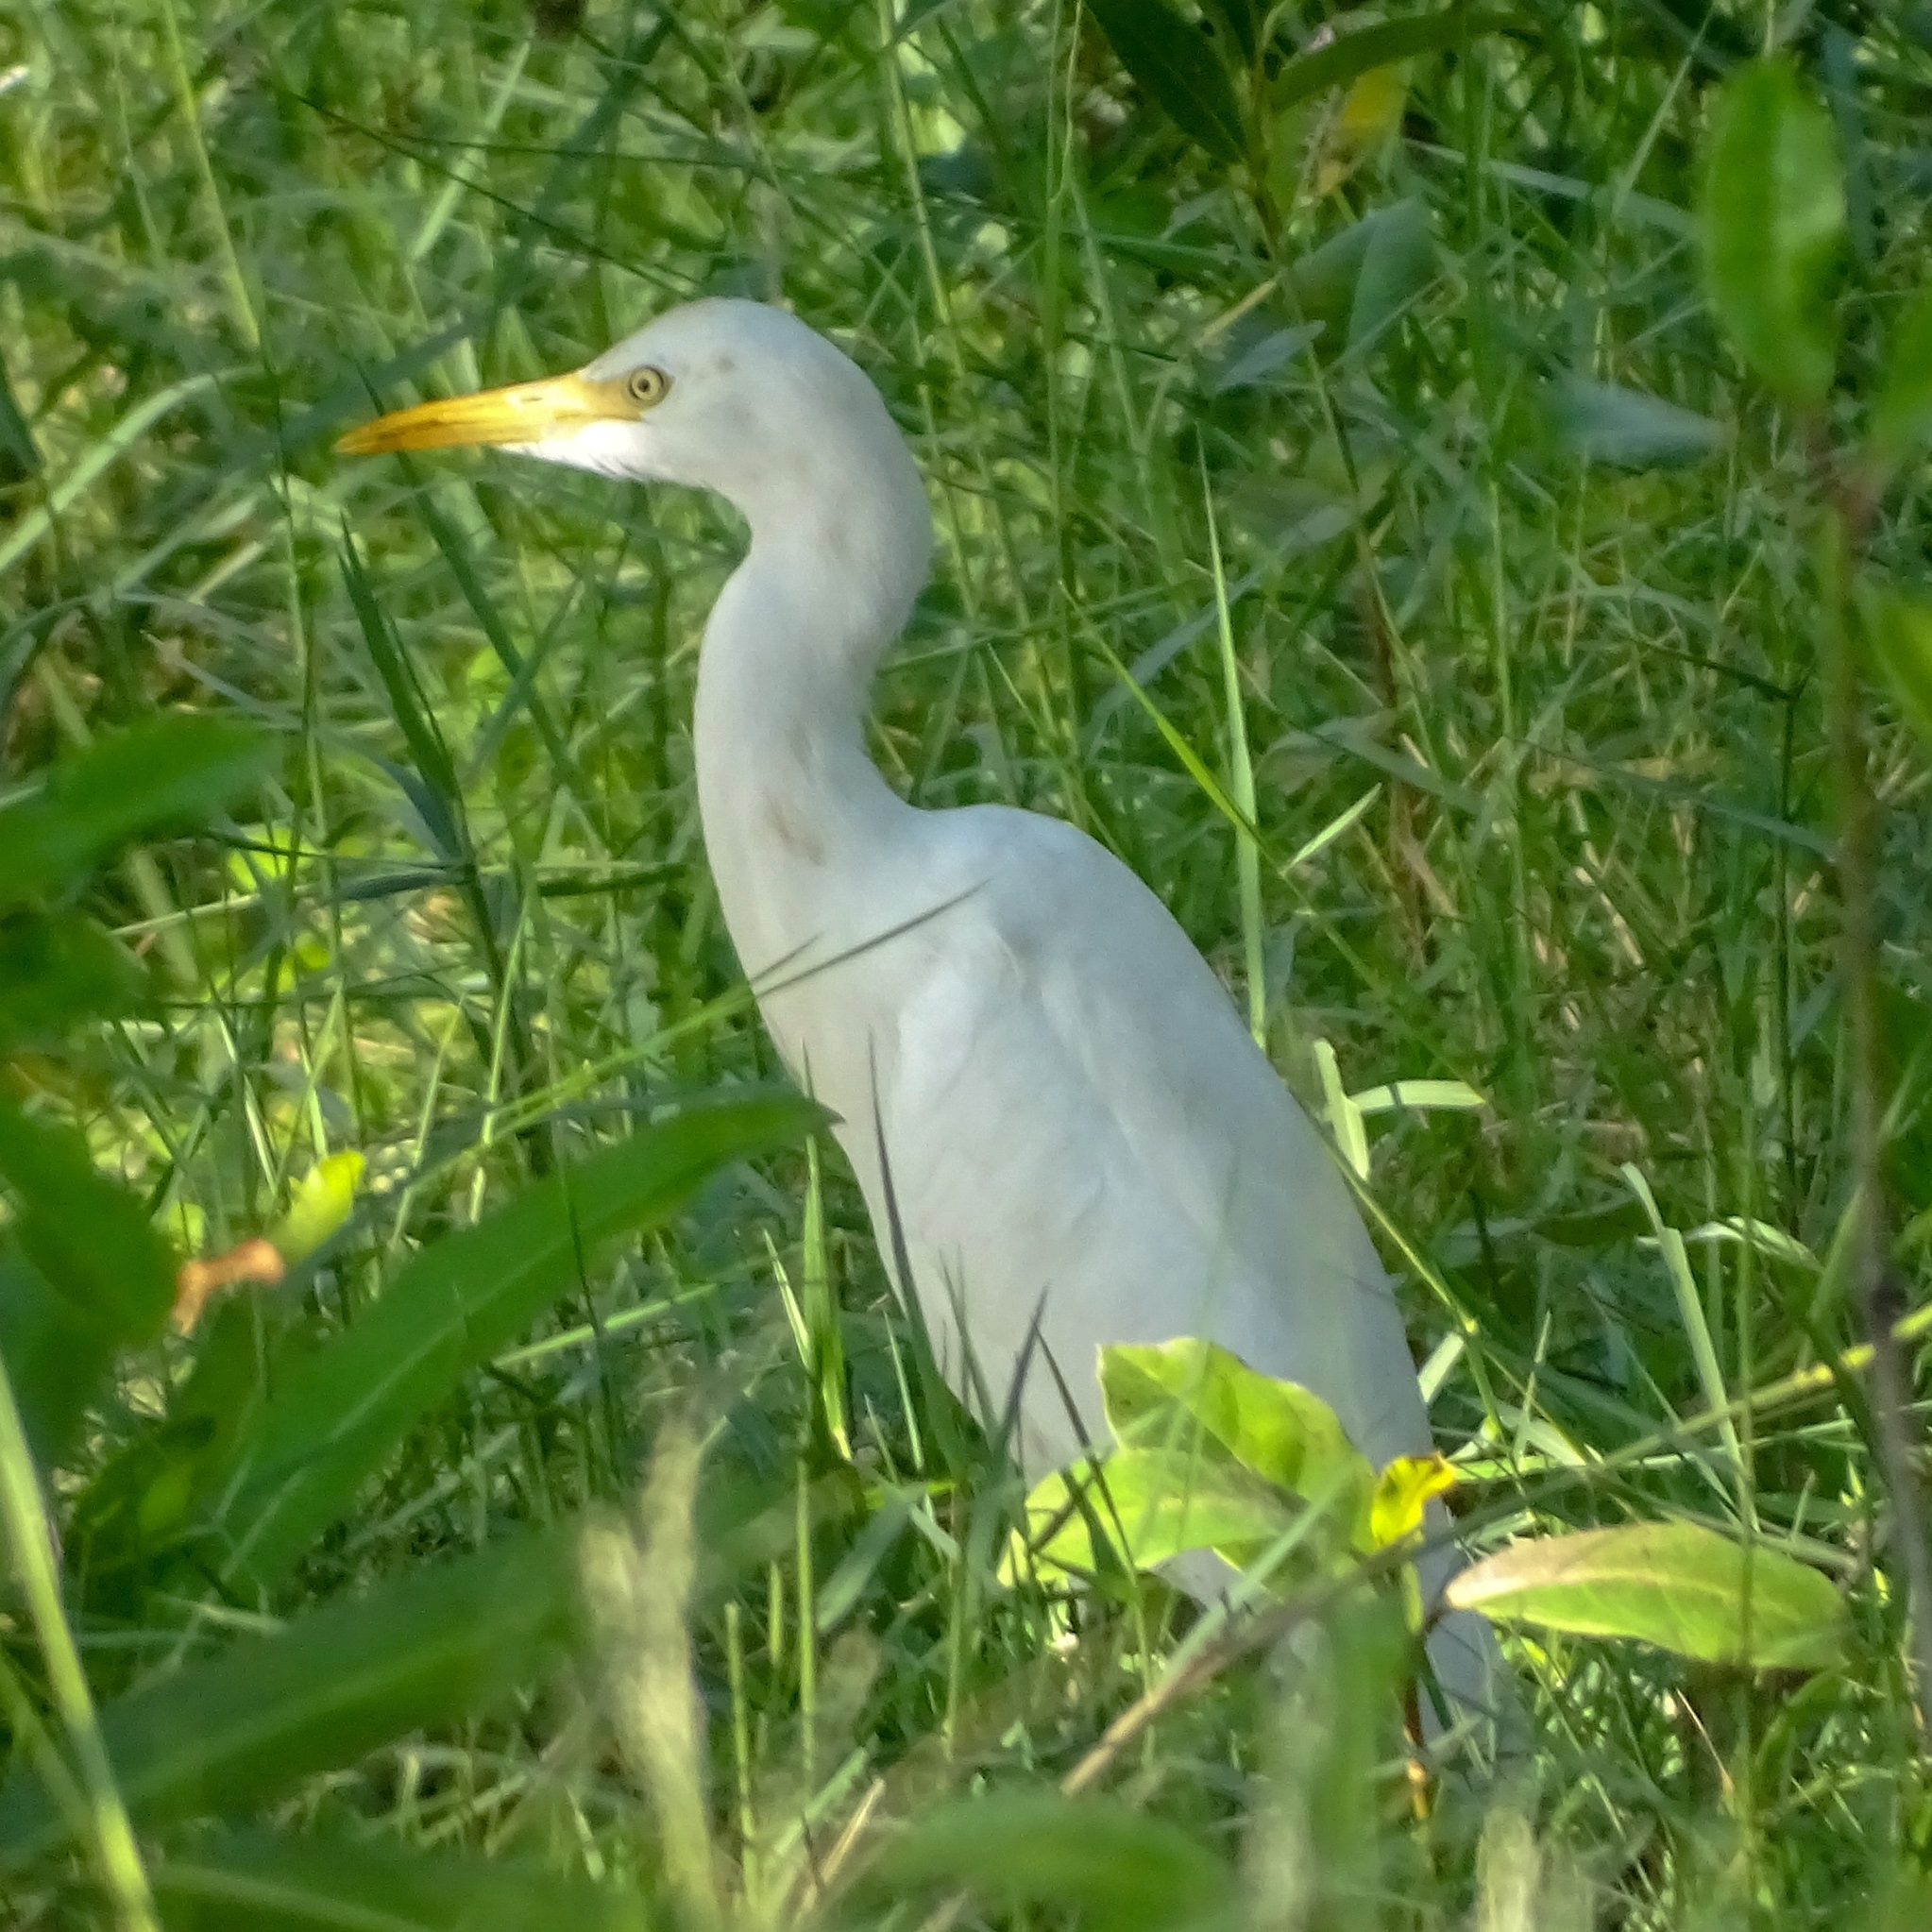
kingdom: Animalia
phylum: Chordata
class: Aves
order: Pelecaniformes
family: Ardeidae
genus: Bubulcus
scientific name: Bubulcus coromandus
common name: Eastern cattle egret
